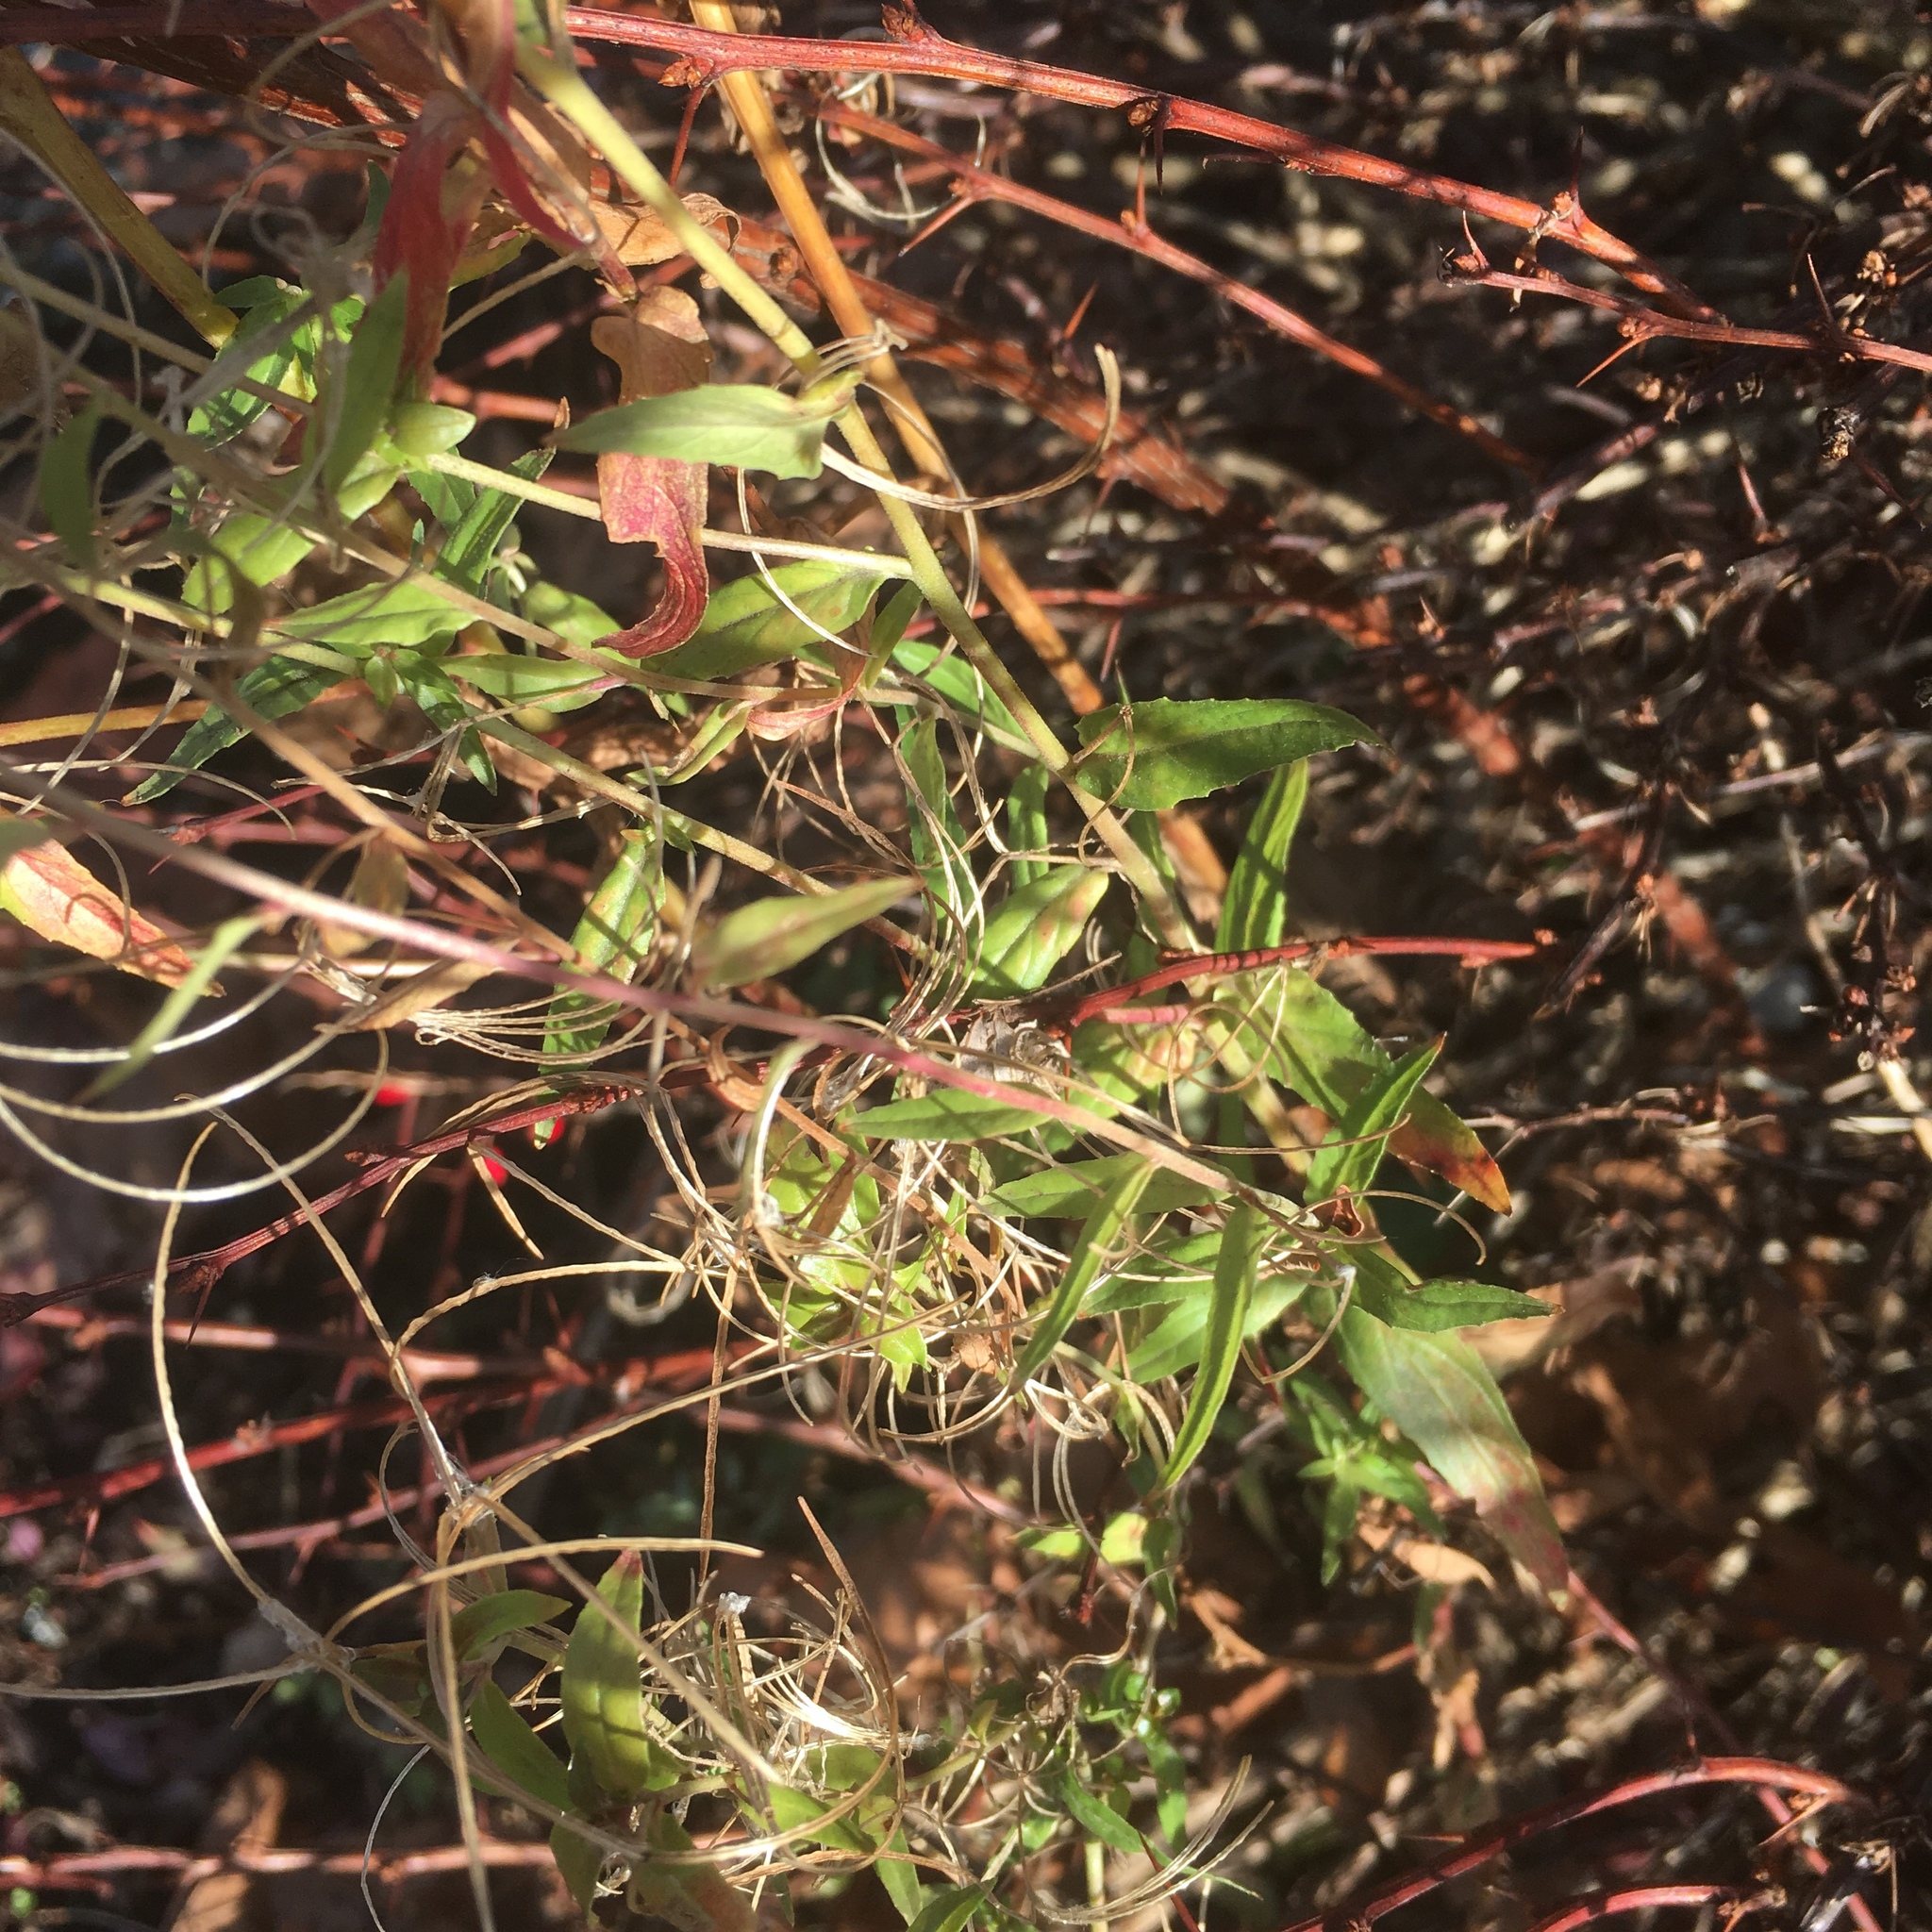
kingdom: Plantae
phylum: Tracheophyta
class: Magnoliopsida
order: Myrtales
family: Onagraceae
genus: Epilobium
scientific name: Epilobium ciliatum
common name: American willowherb
